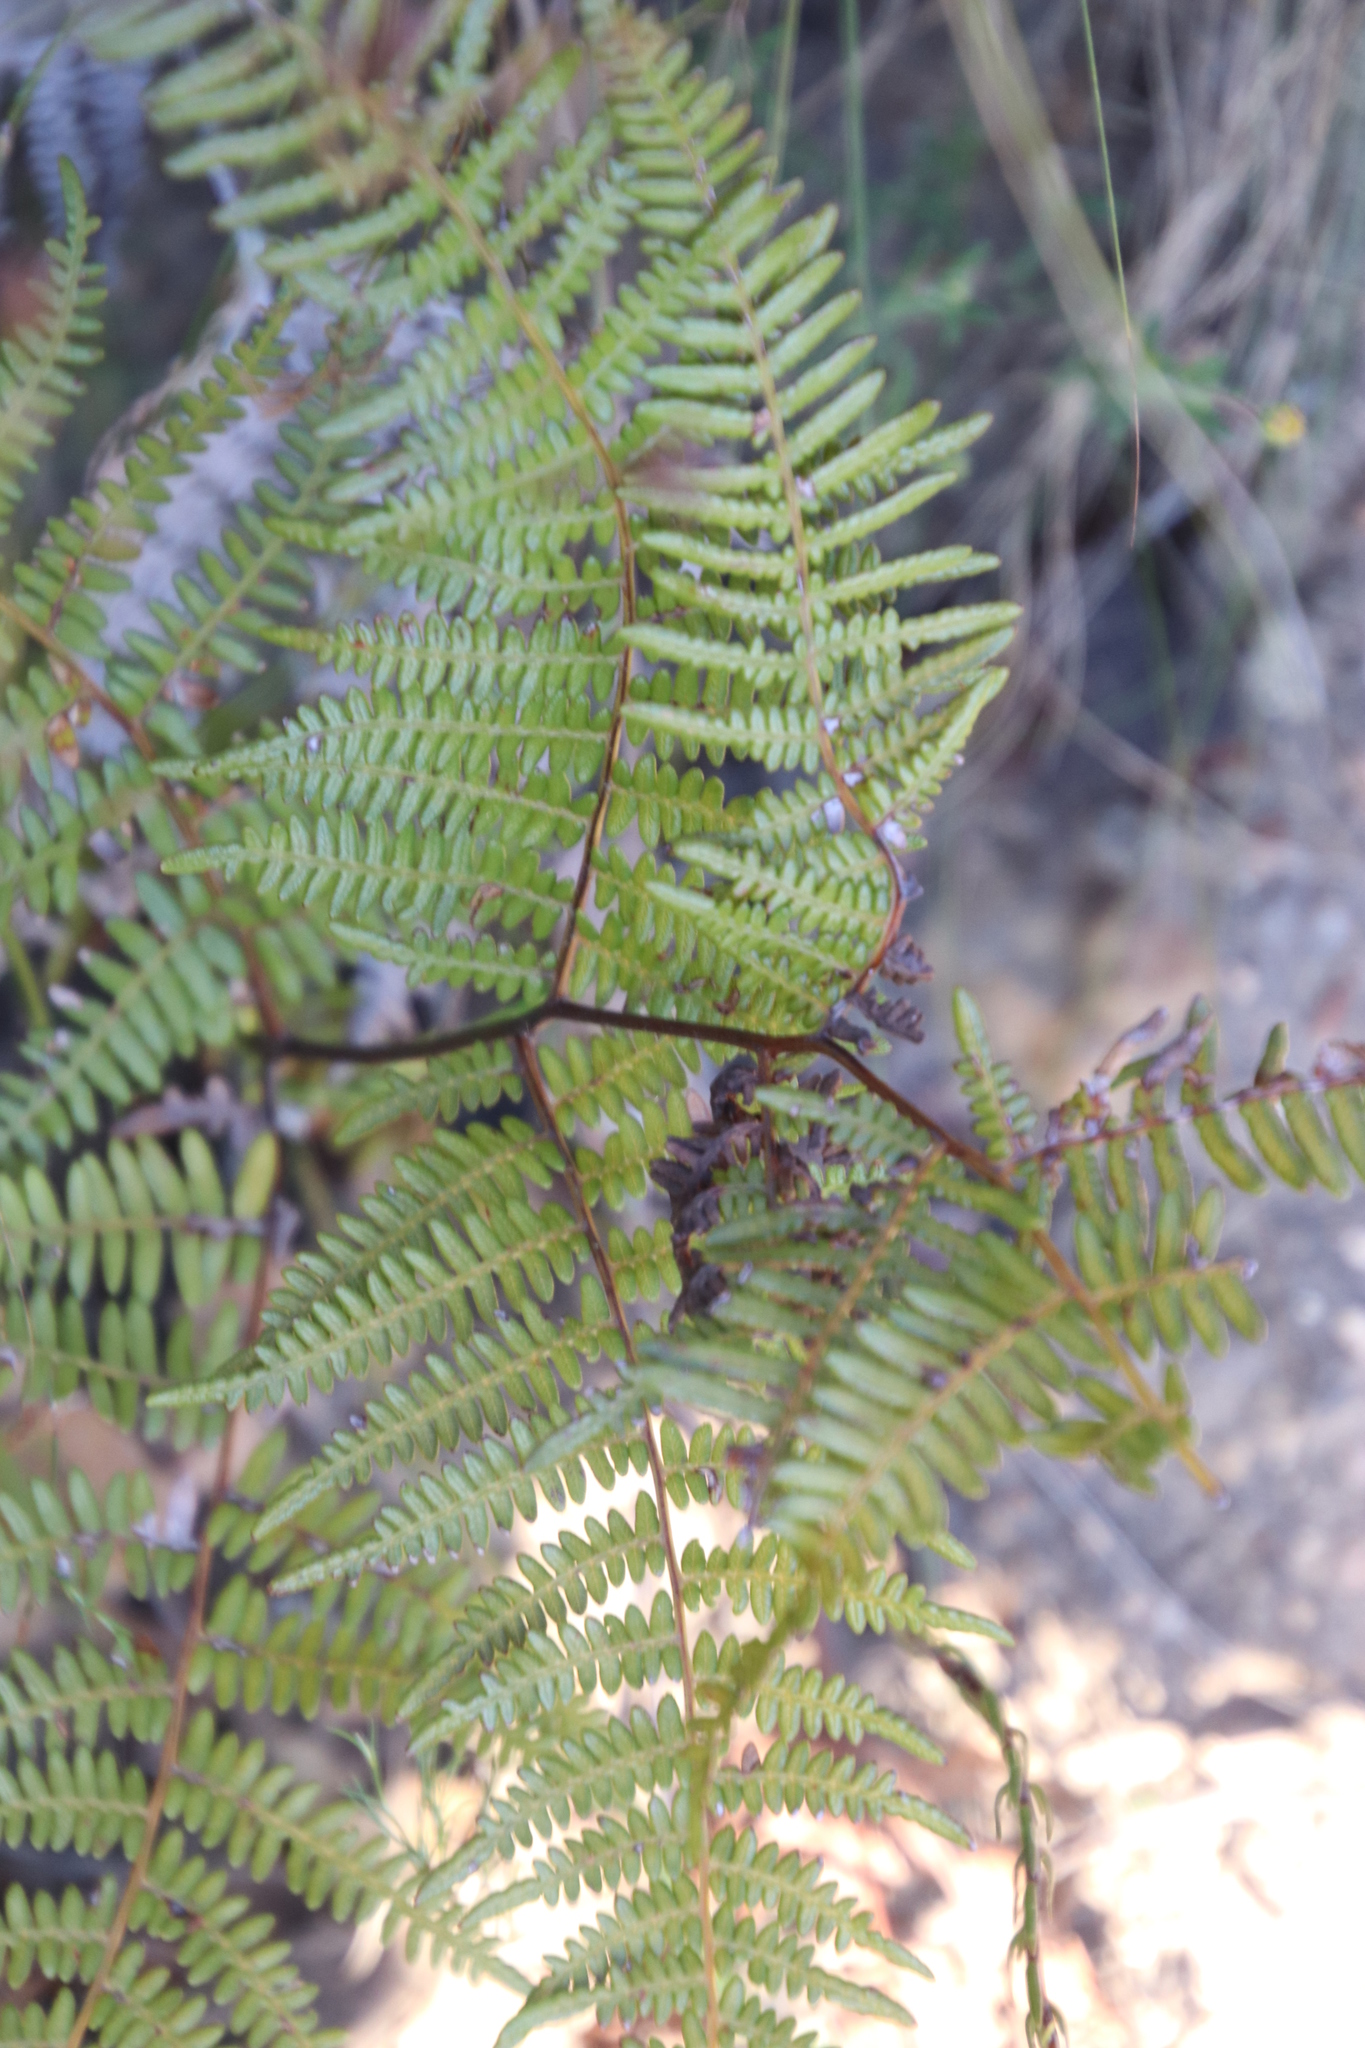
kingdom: Plantae
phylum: Tracheophyta
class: Polypodiopsida
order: Polypodiales
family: Dennstaedtiaceae
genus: Pteridium
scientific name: Pteridium aquilinum
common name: Bracken
